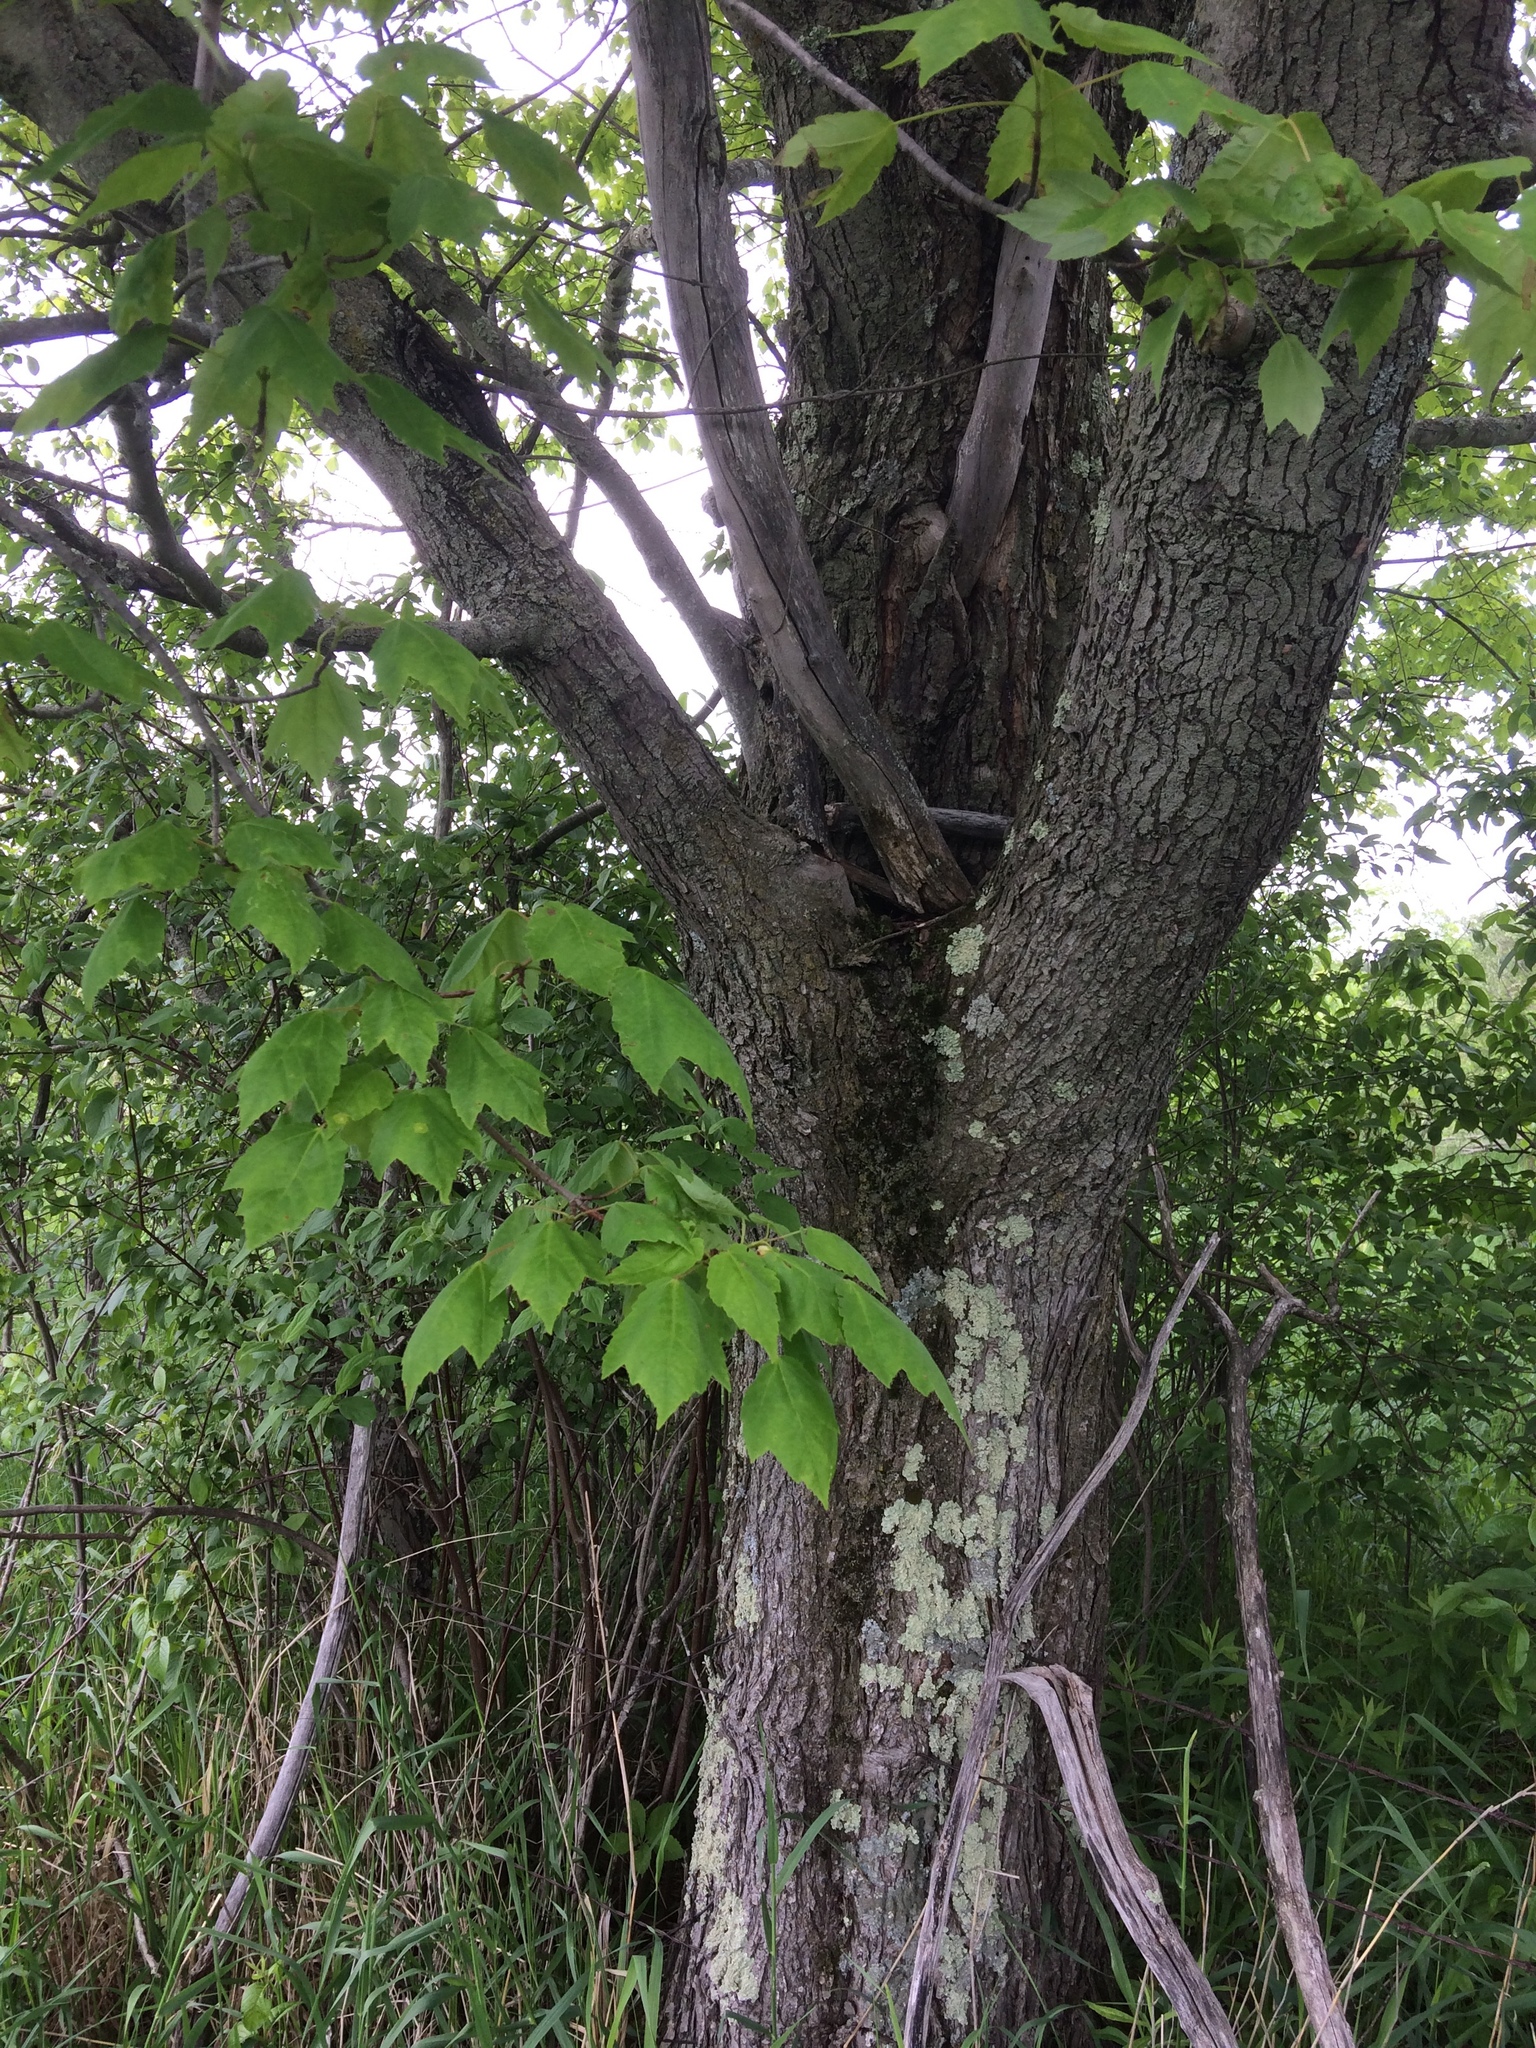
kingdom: Plantae
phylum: Tracheophyta
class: Magnoliopsida
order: Sapindales
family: Sapindaceae
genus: Acer
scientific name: Acer rubrum
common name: Red maple
